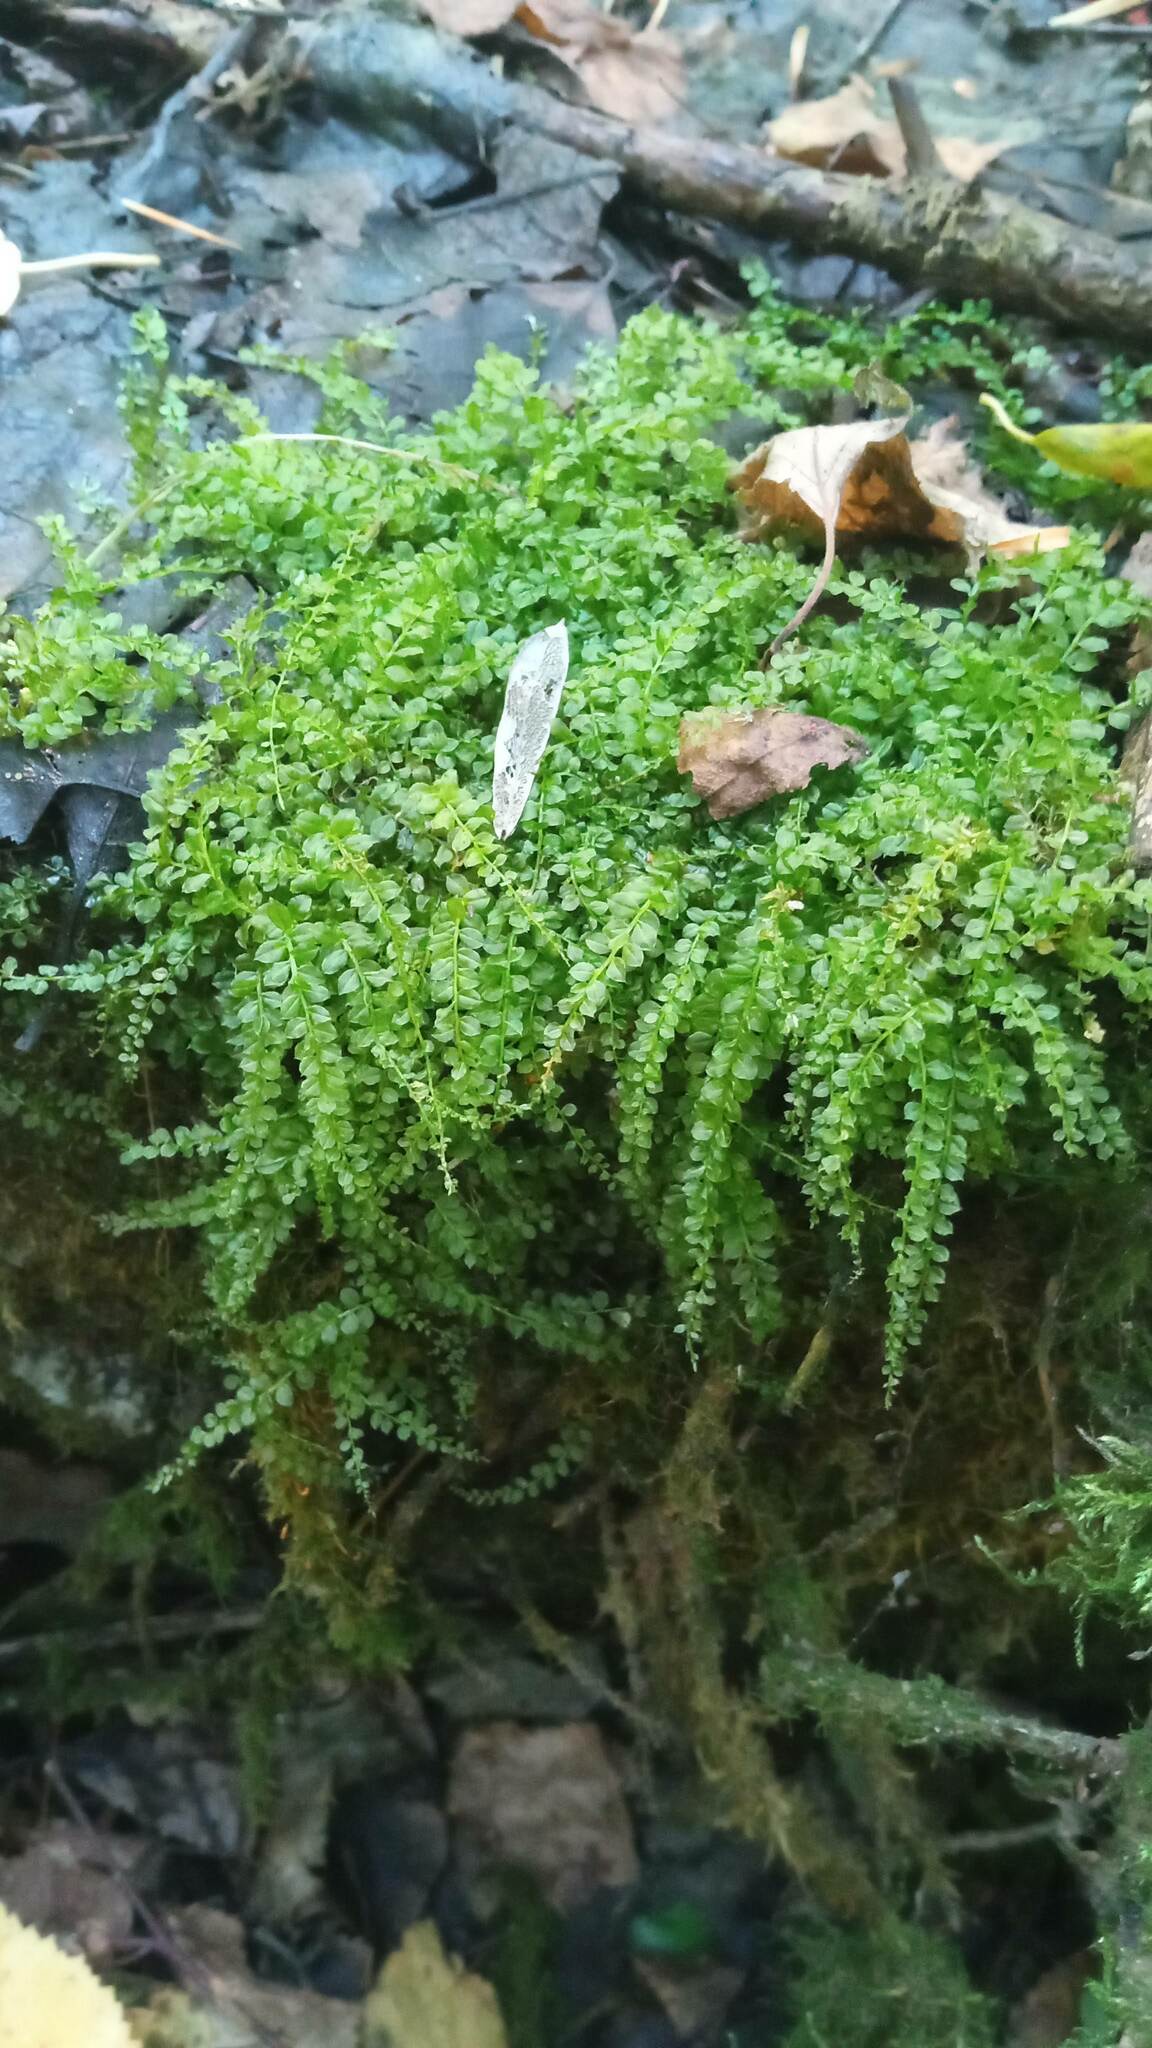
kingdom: Plantae
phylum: Bryophyta
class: Bryopsida
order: Bryales
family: Mniaceae
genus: Plagiomnium
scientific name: Plagiomnium cuspidatum
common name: Woodsy leafy moss
